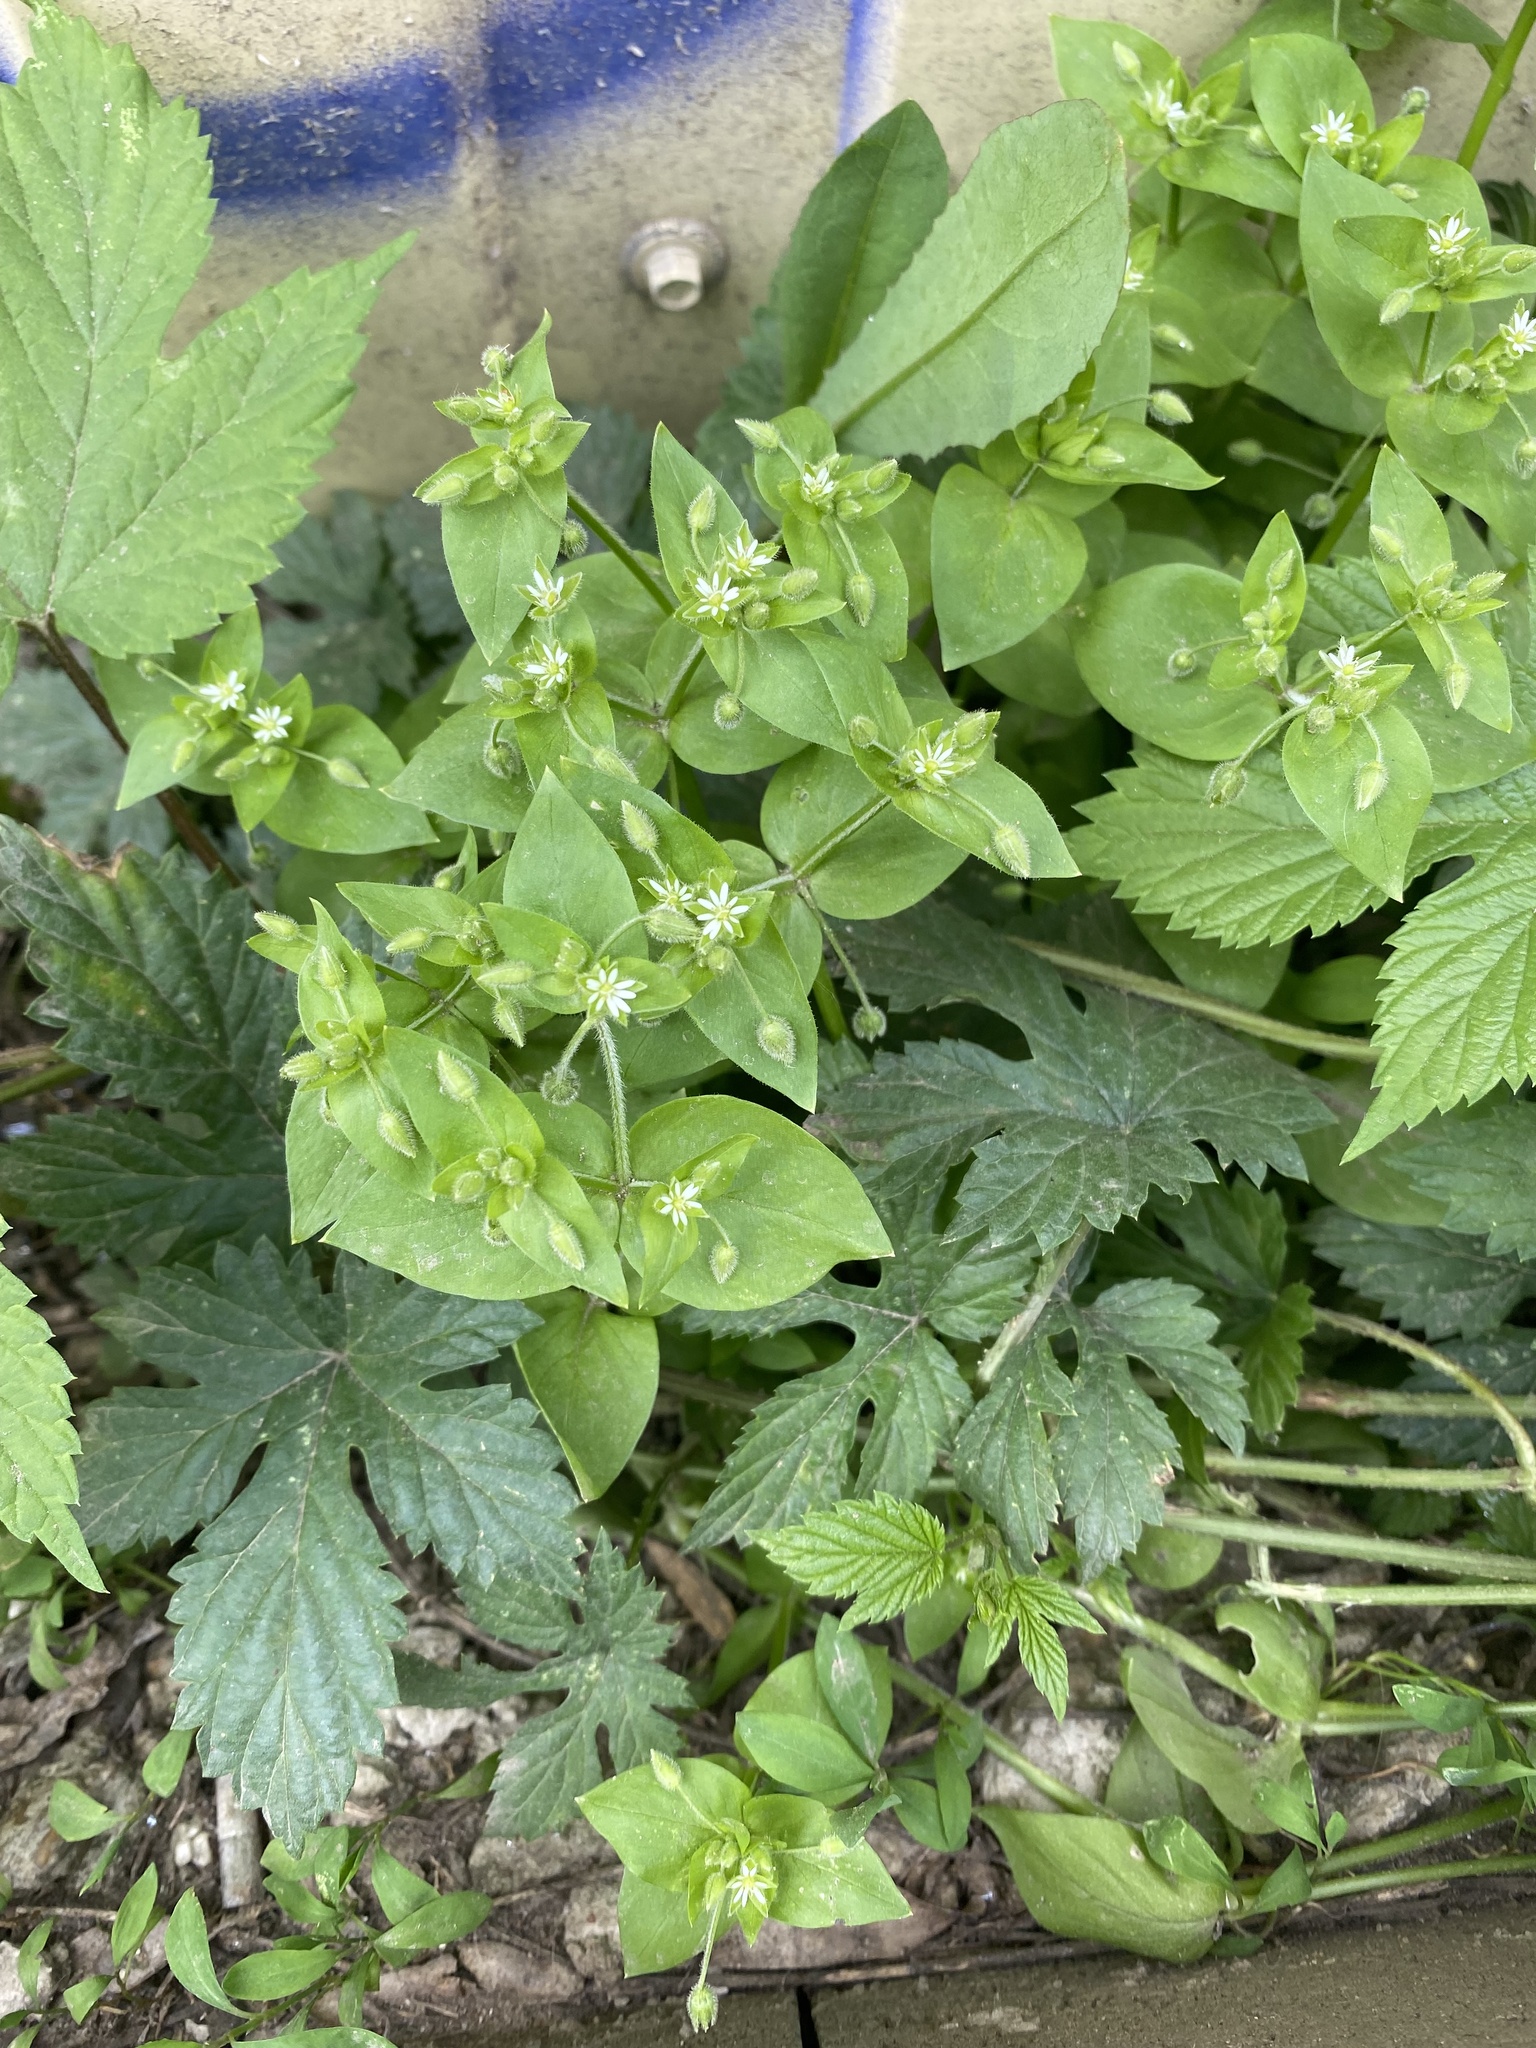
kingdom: Plantae
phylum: Tracheophyta
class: Magnoliopsida
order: Caryophyllales
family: Caryophyllaceae
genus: Stellaria
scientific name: Stellaria media
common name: Common chickweed
